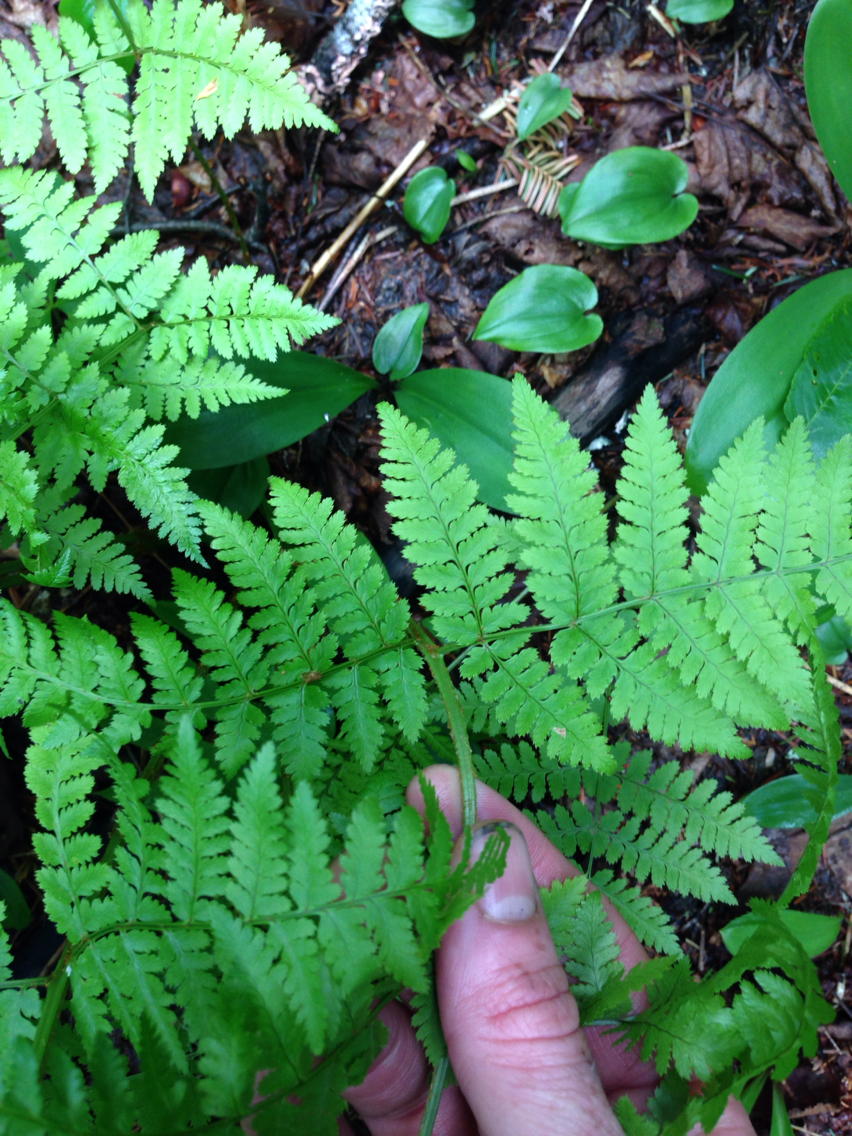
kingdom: Plantae
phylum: Tracheophyta
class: Polypodiopsida
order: Polypodiales
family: Dryopteridaceae
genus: Dryopteris
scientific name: Dryopteris campyloptera
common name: Mountain wood fern
